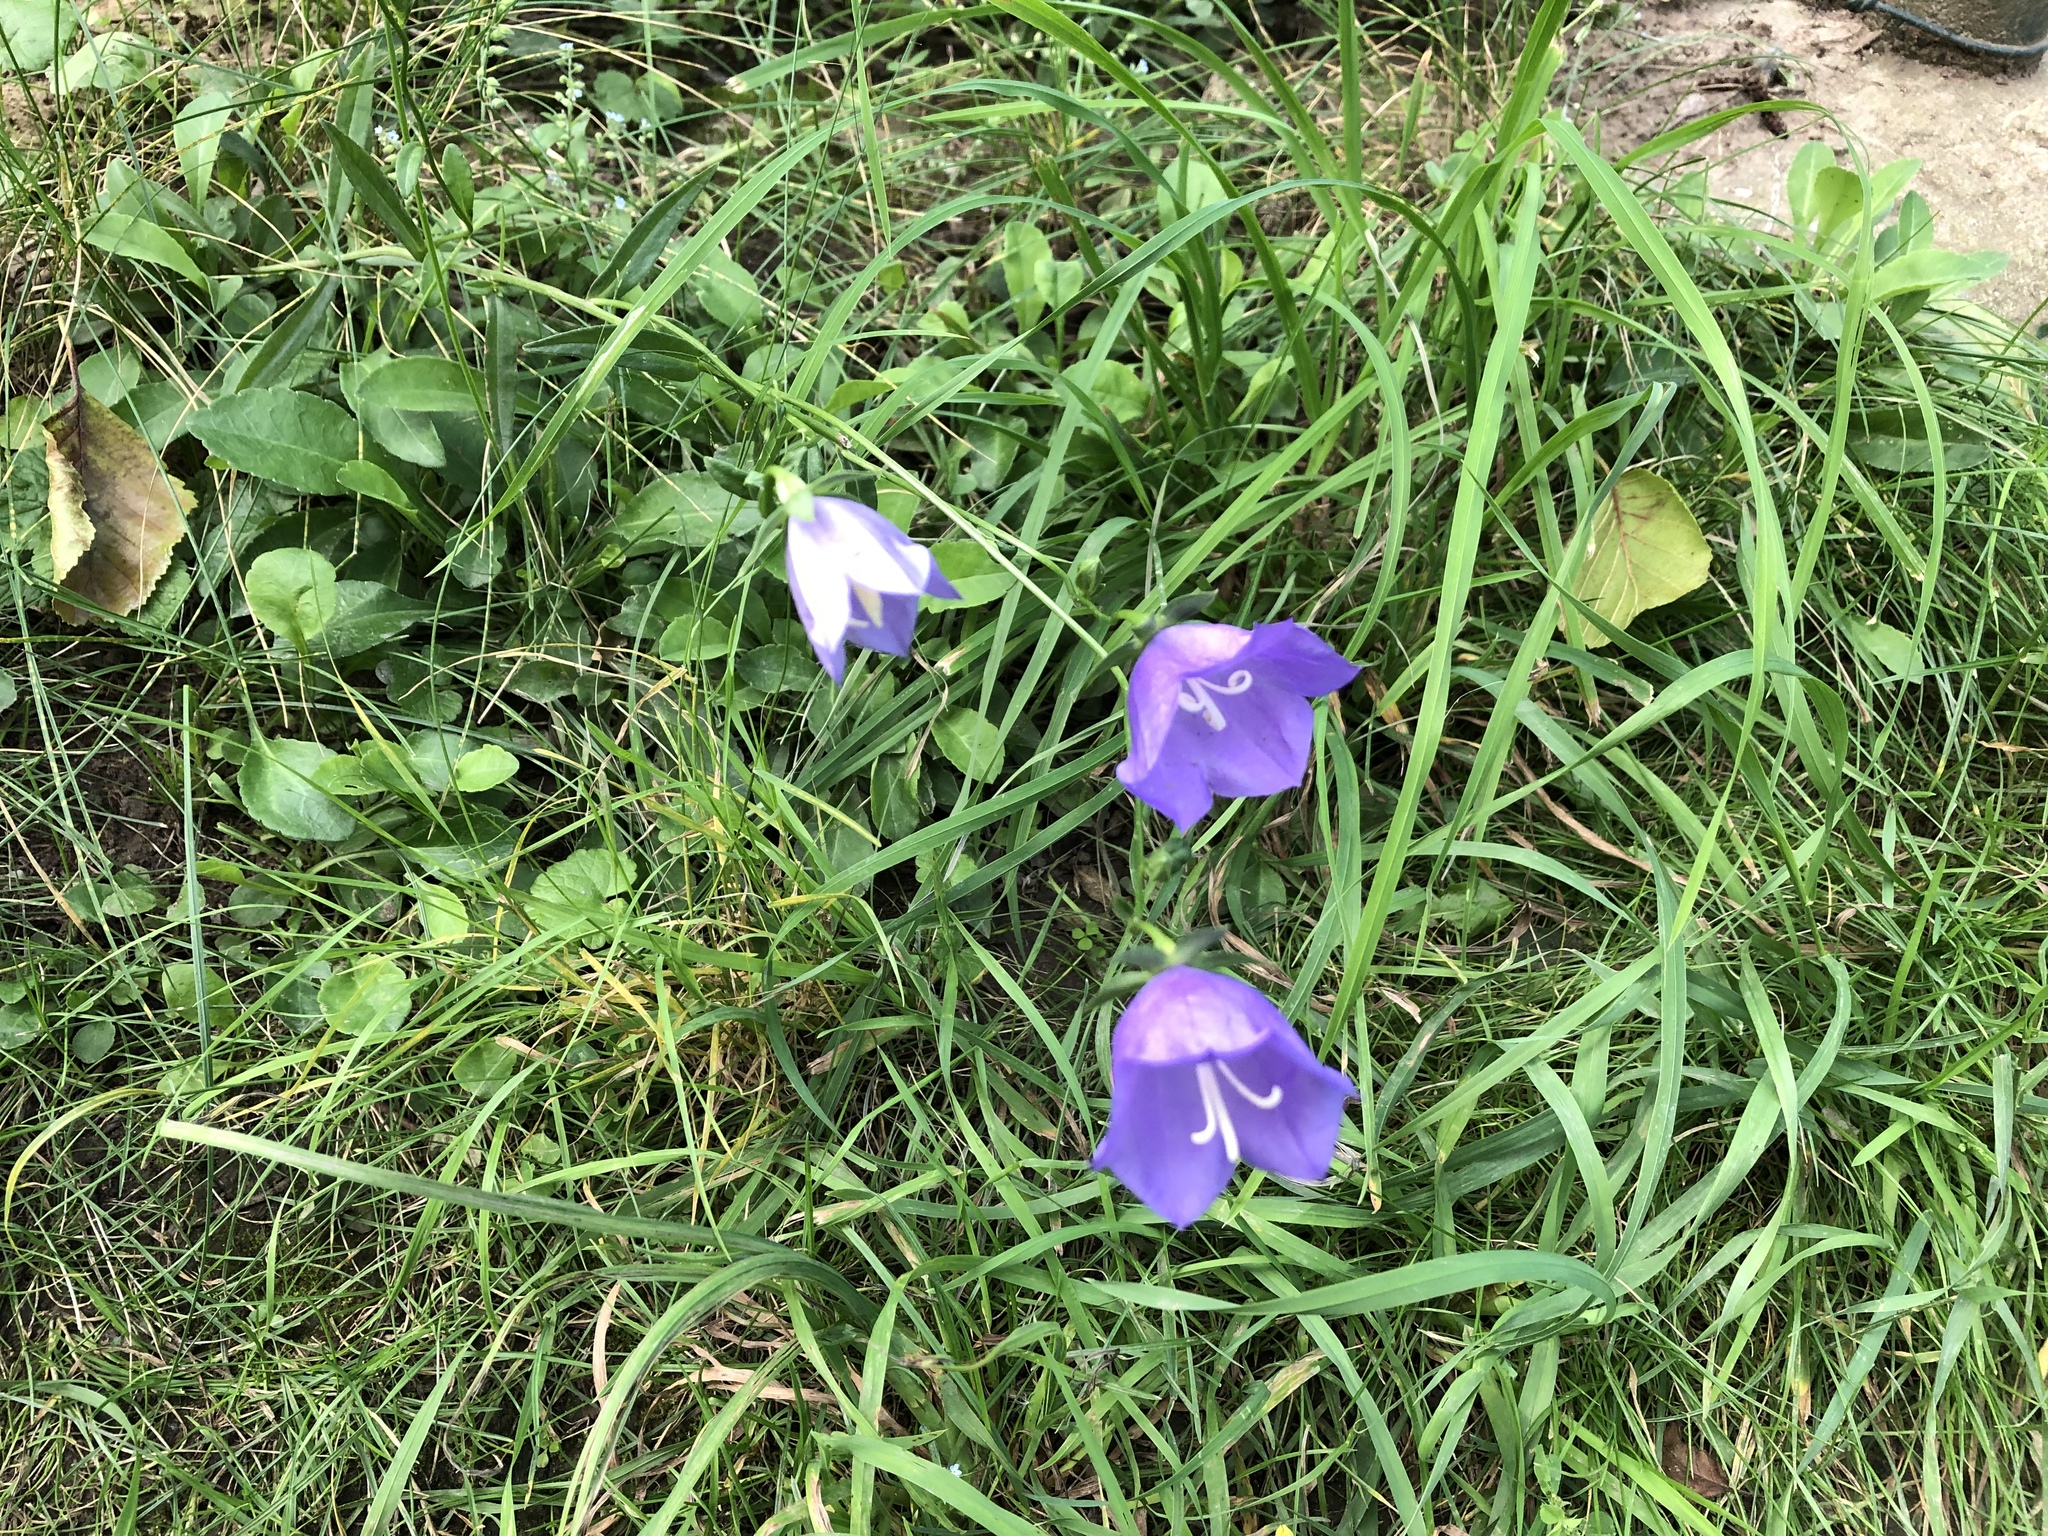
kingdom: Plantae
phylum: Tracheophyta
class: Magnoliopsida
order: Asterales
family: Campanulaceae
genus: Campanula
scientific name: Campanula persicifolia
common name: Peach-leaved bellflower
